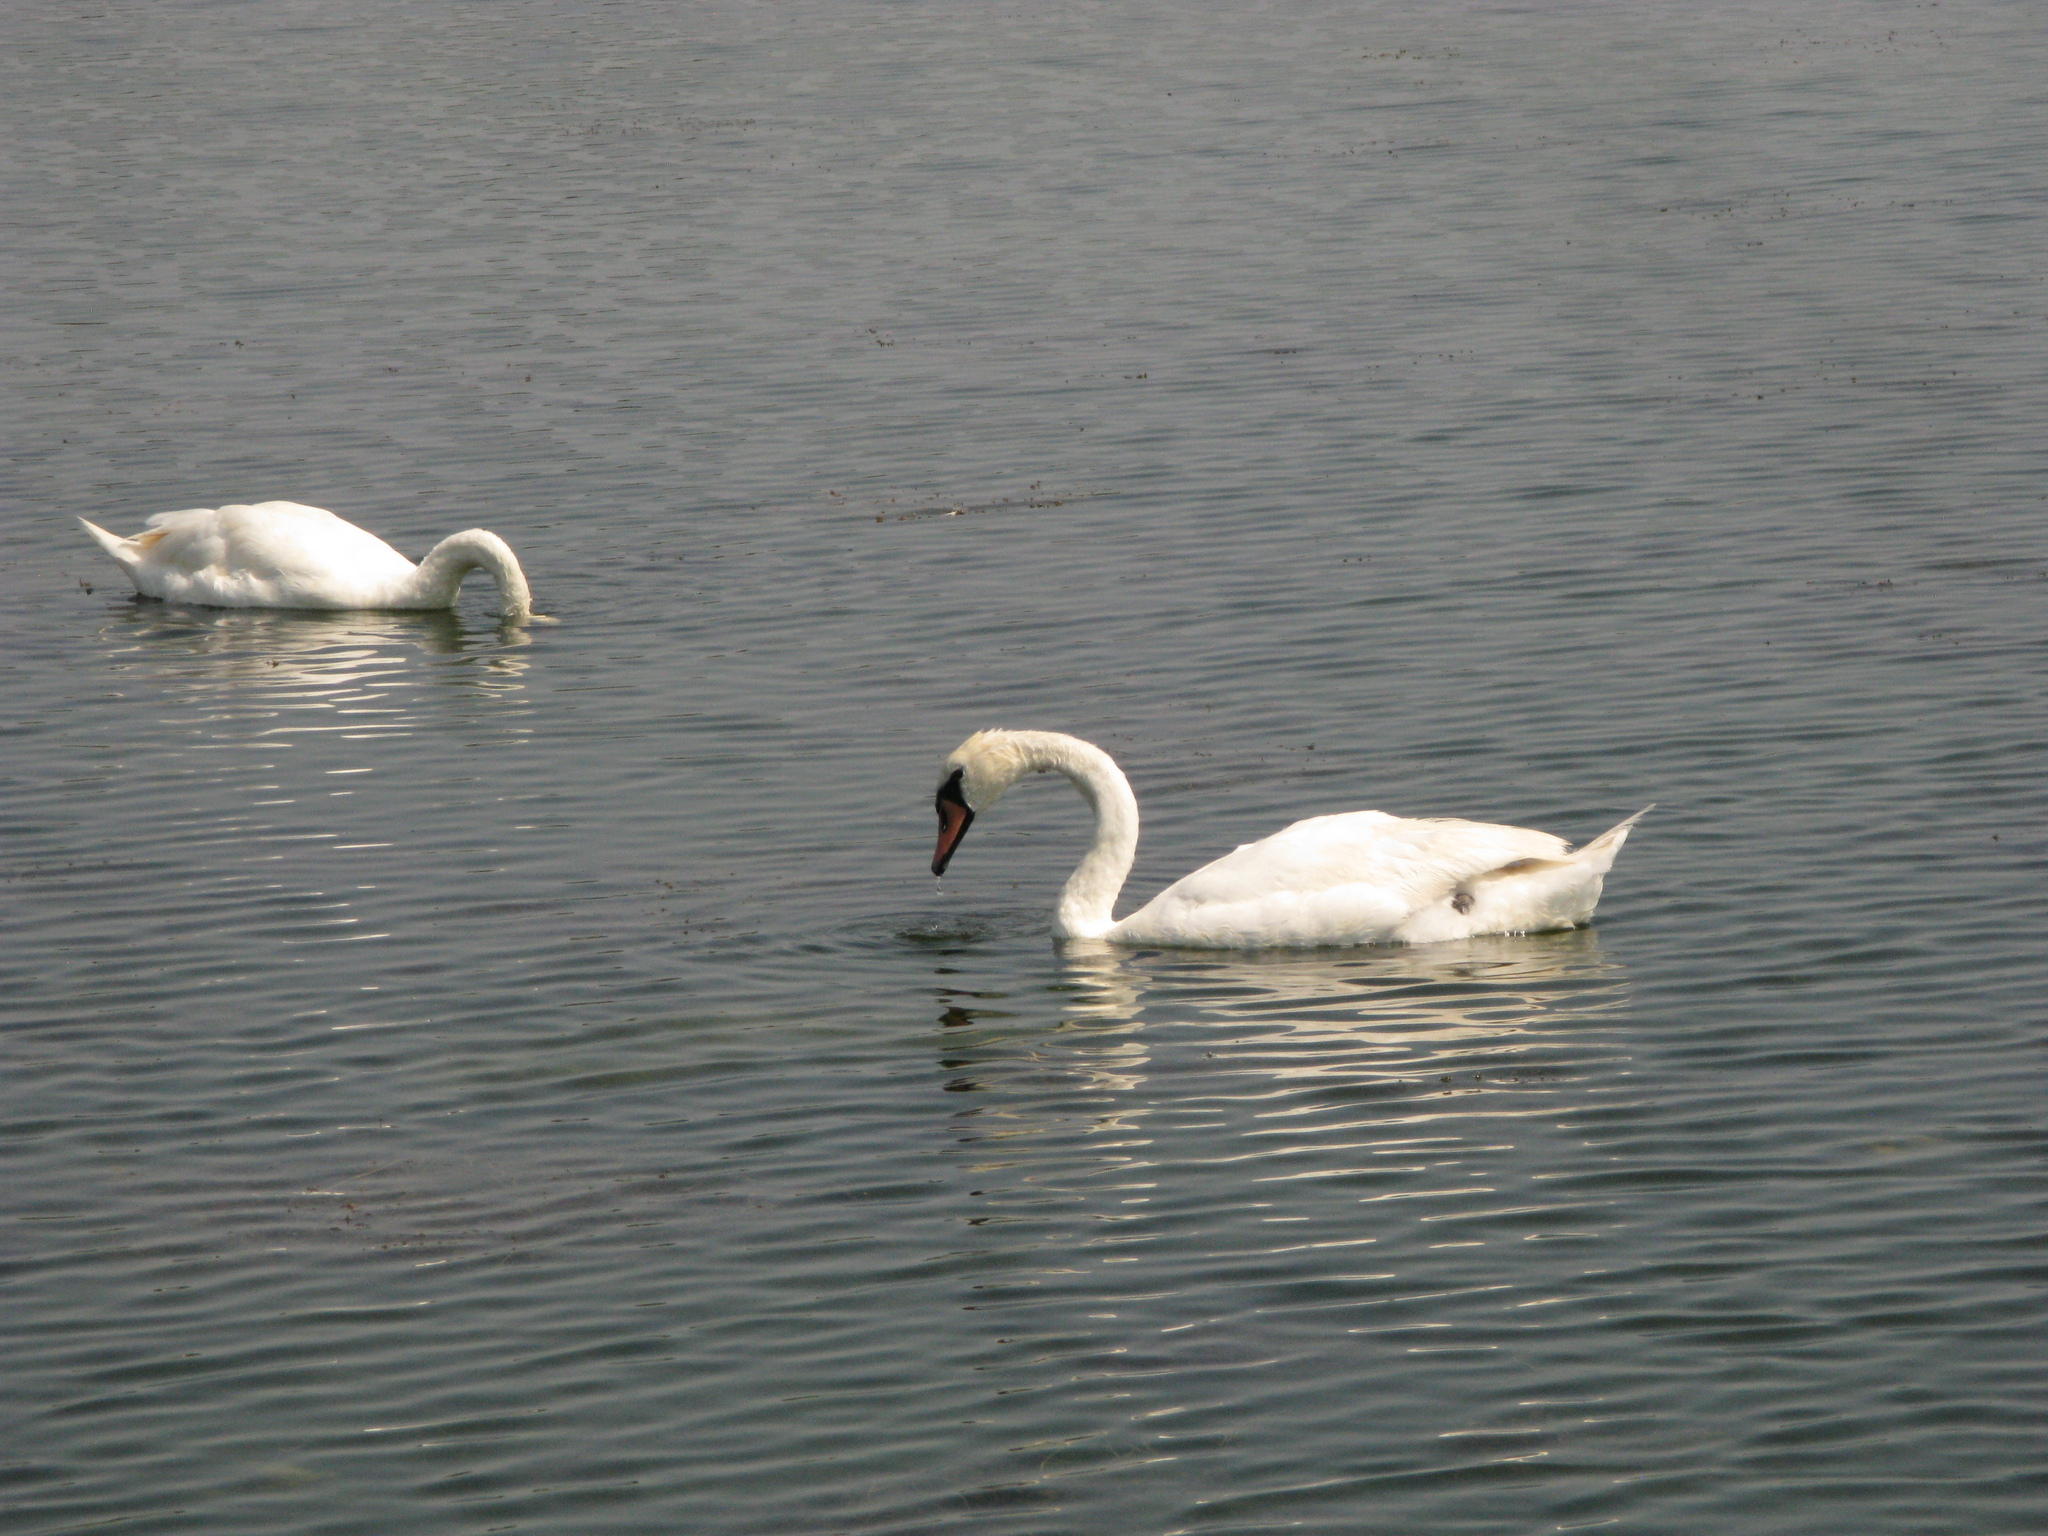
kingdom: Animalia
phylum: Chordata
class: Aves
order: Anseriformes
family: Anatidae
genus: Cygnus
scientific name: Cygnus olor
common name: Mute swan
